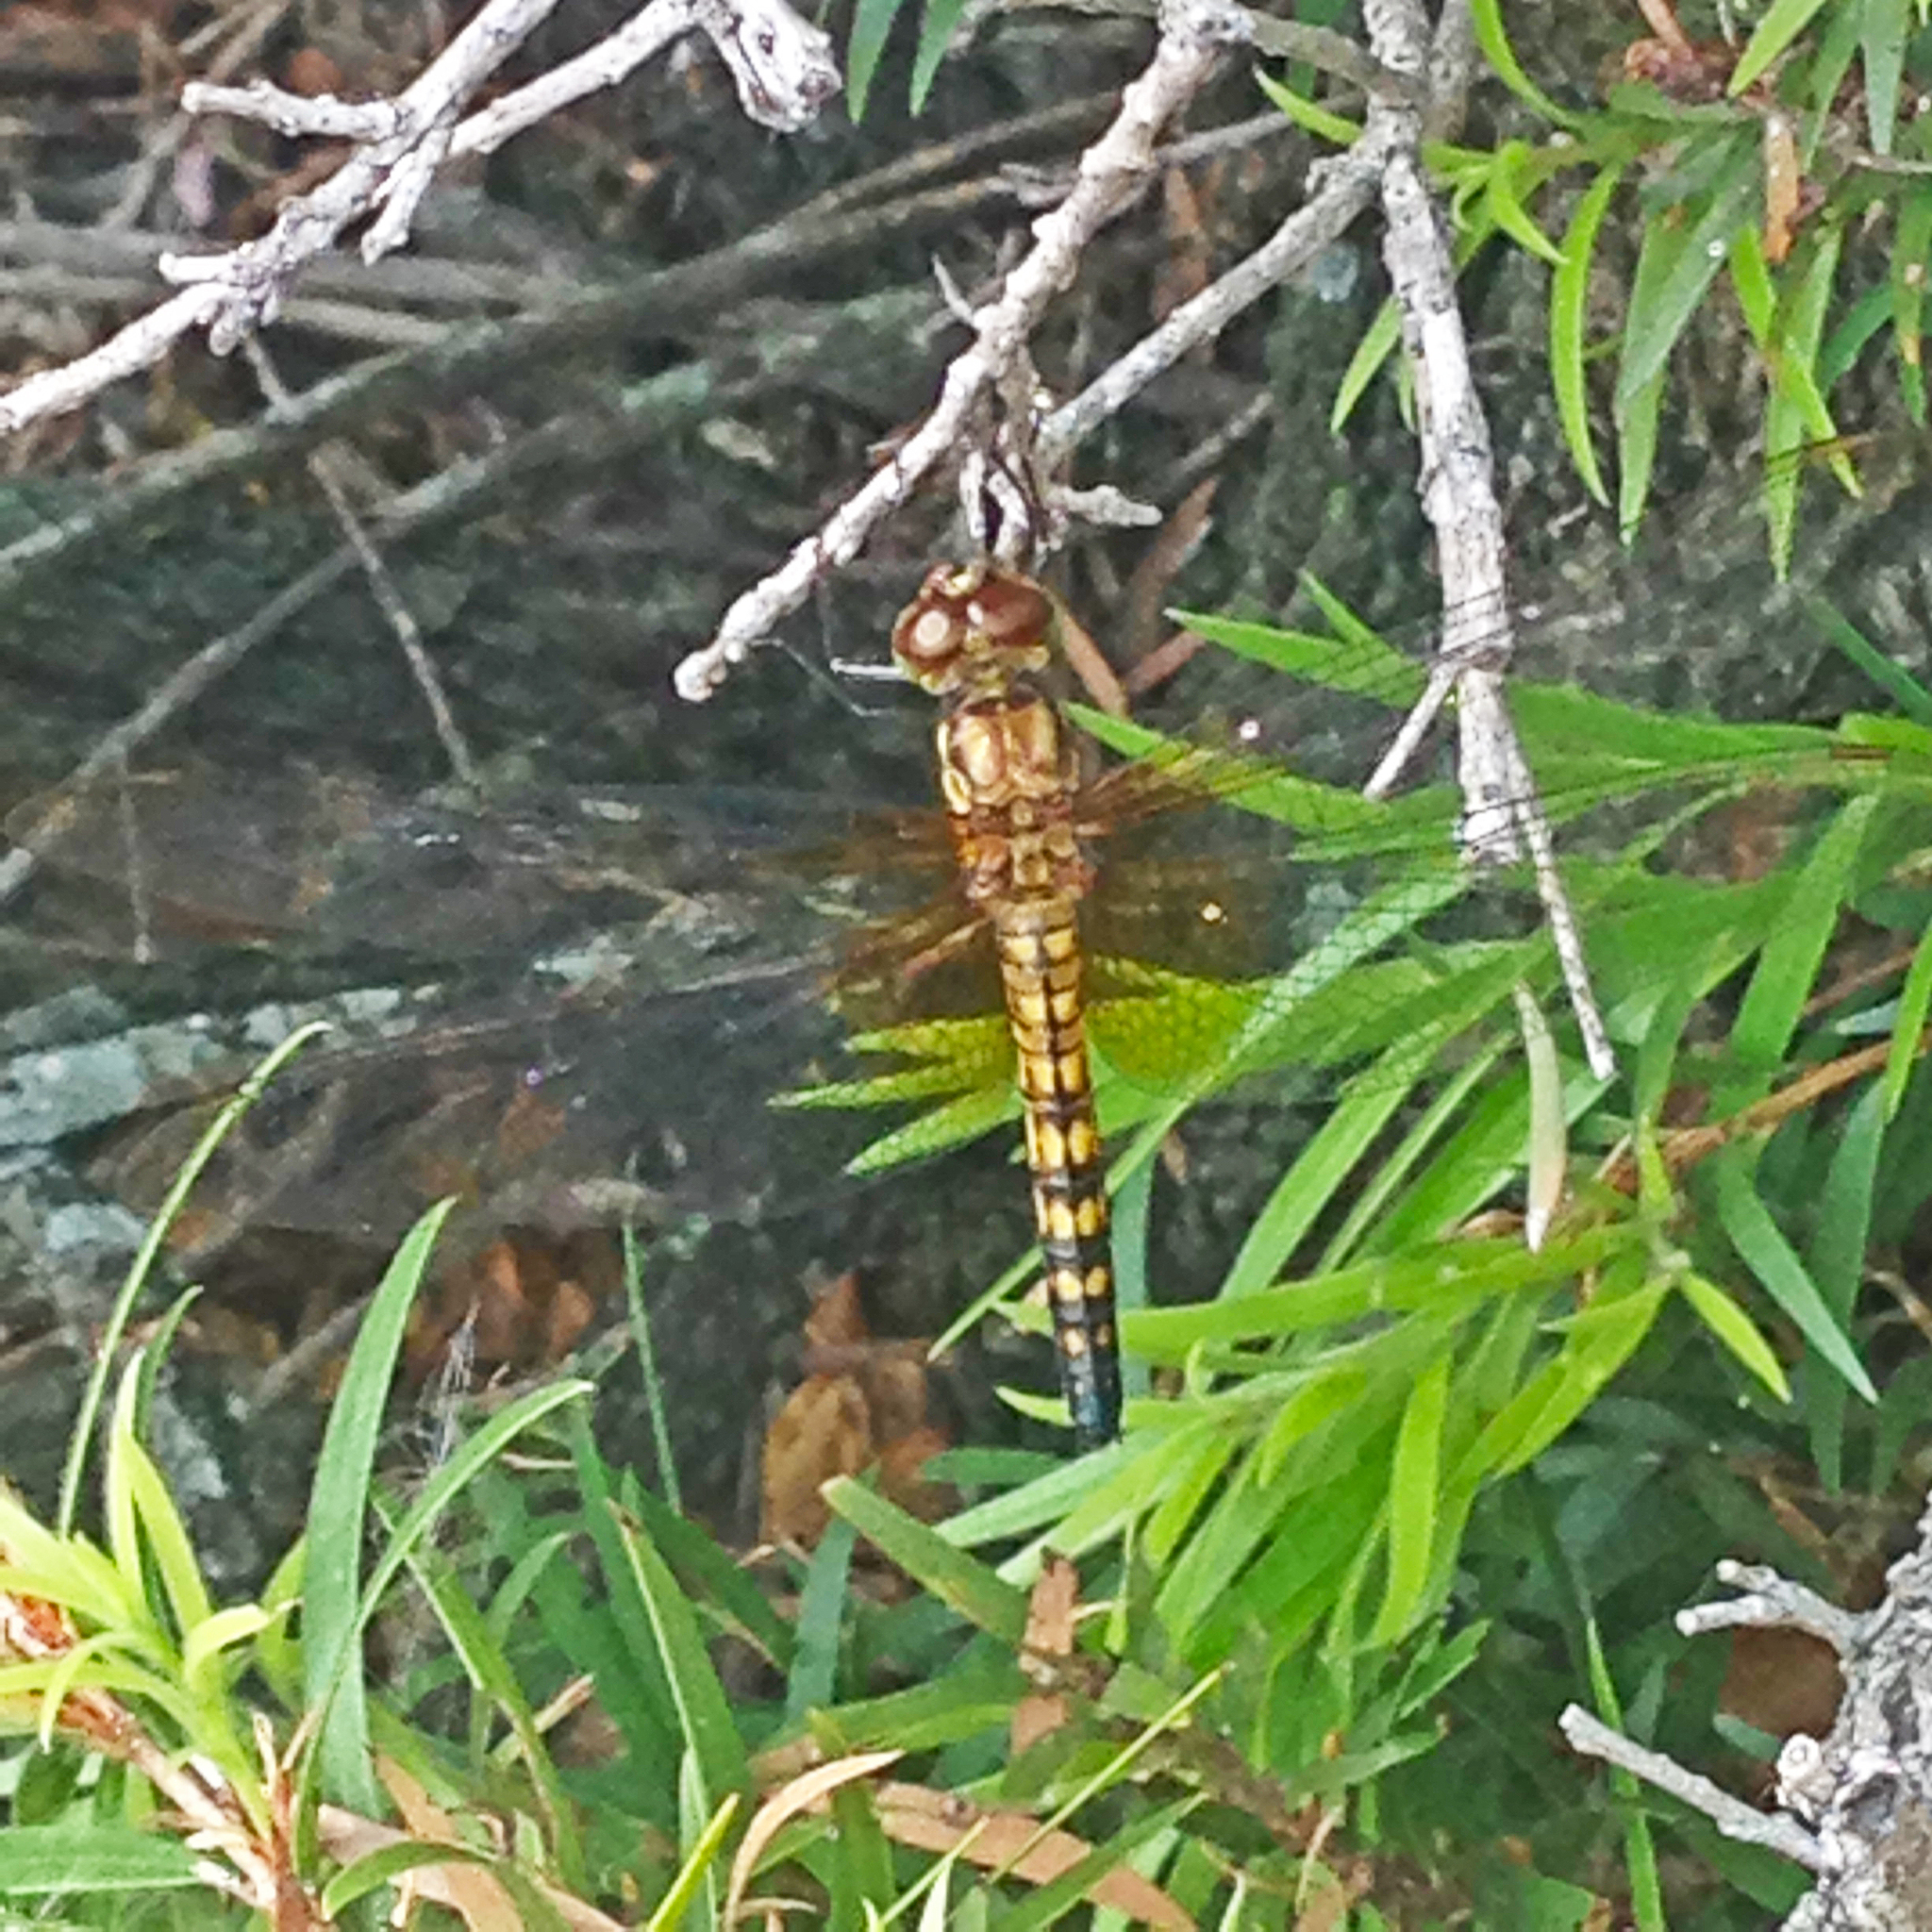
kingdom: Animalia
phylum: Arthropoda
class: Insecta
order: Odonata
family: Libellulidae
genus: Hydrobasileus
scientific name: Hydrobasileus brevistylus
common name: Water prince
